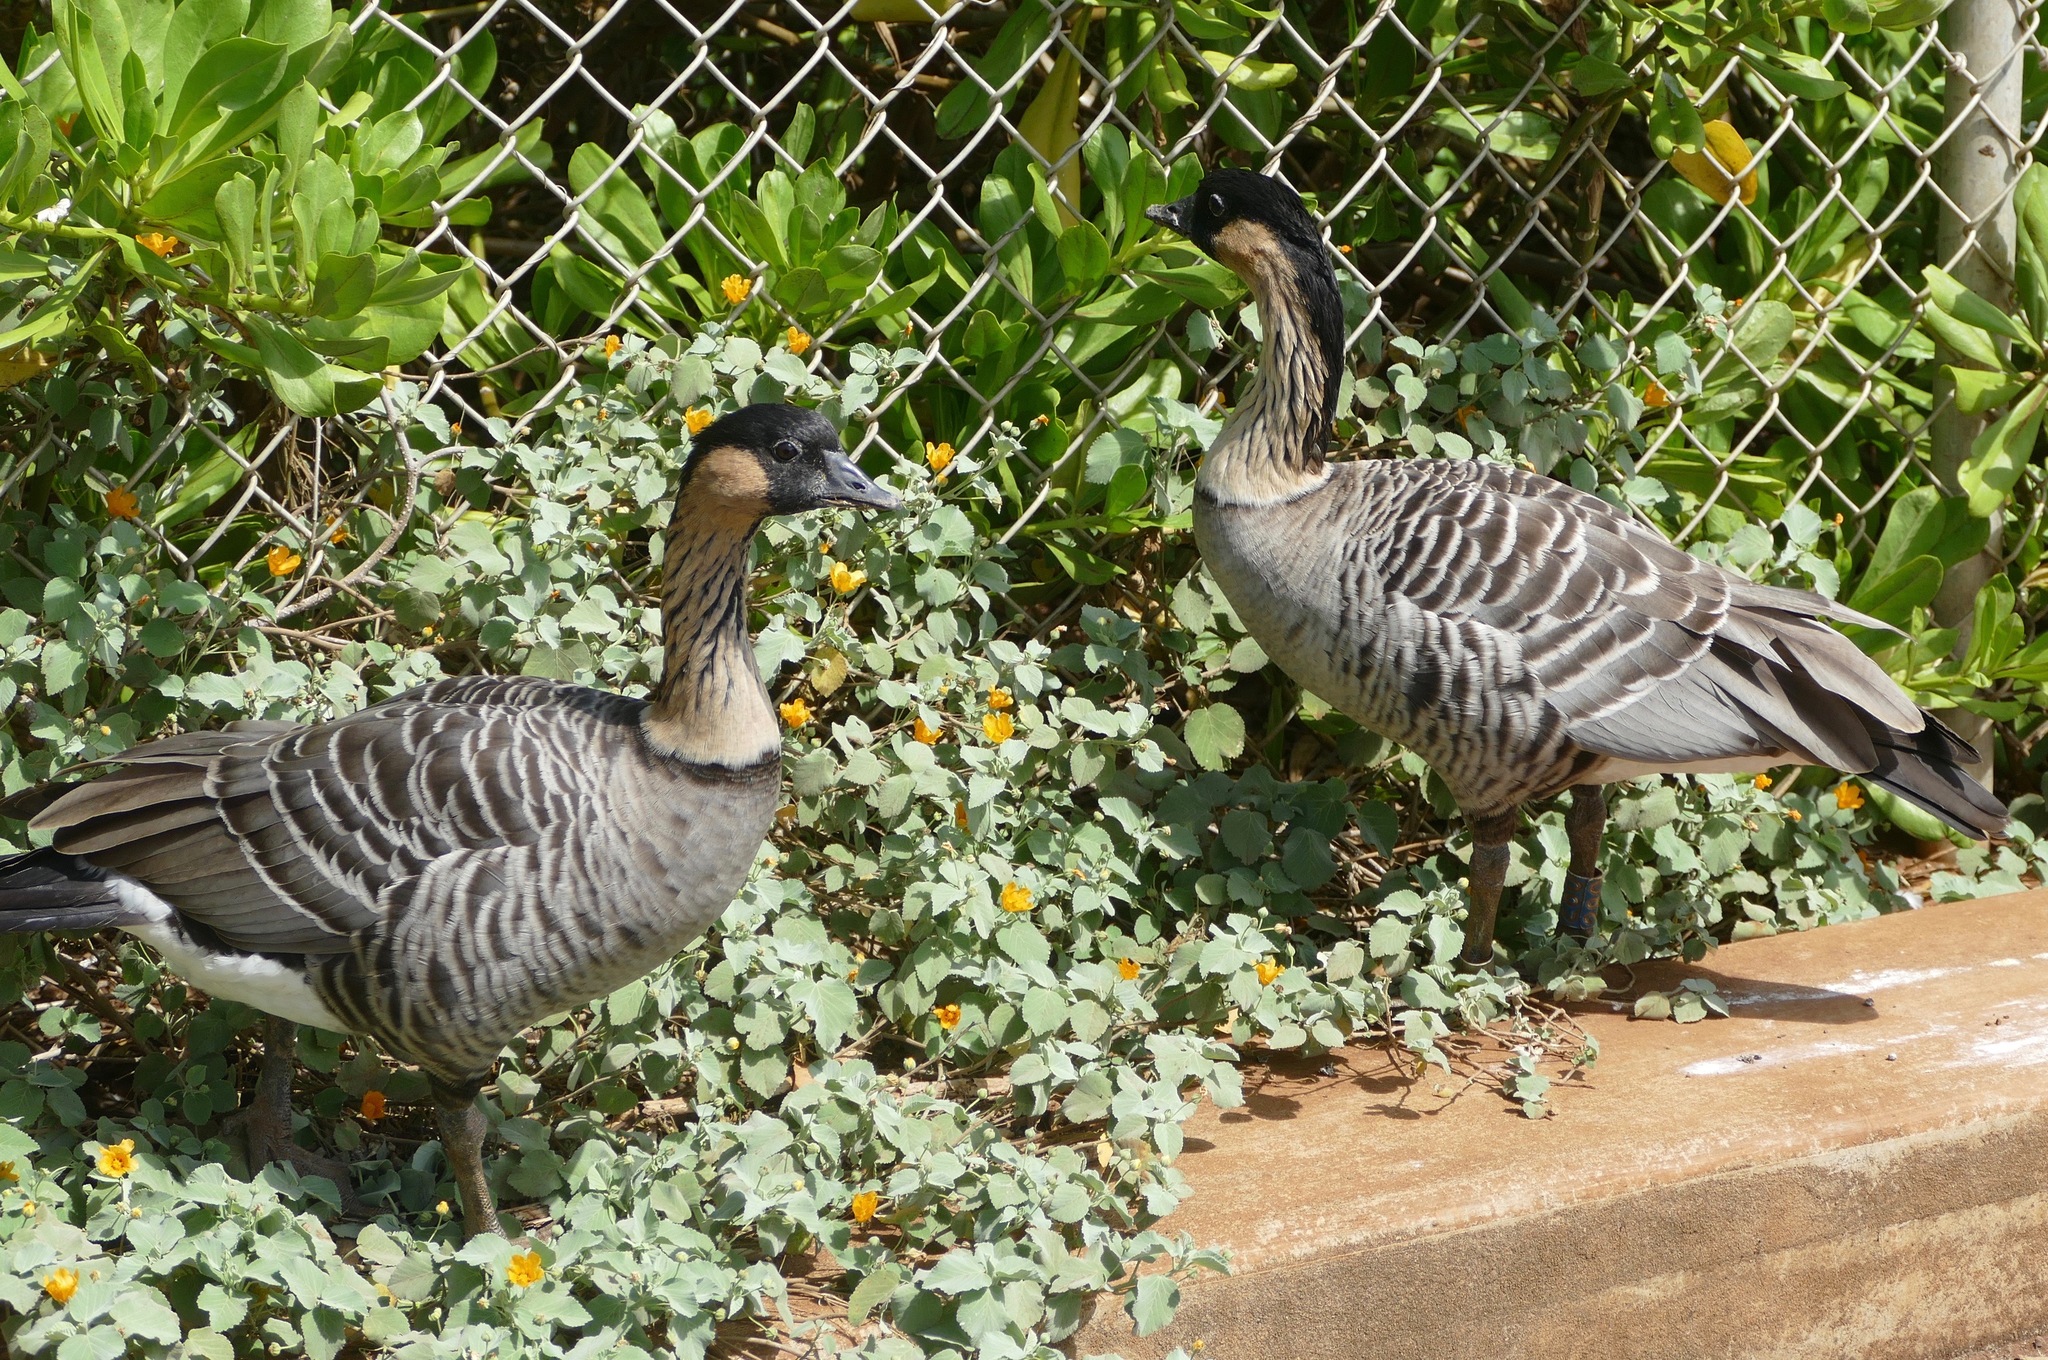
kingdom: Animalia
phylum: Chordata
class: Aves
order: Anseriformes
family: Anatidae
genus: Branta
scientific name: Branta sandvicensis
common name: Nene
